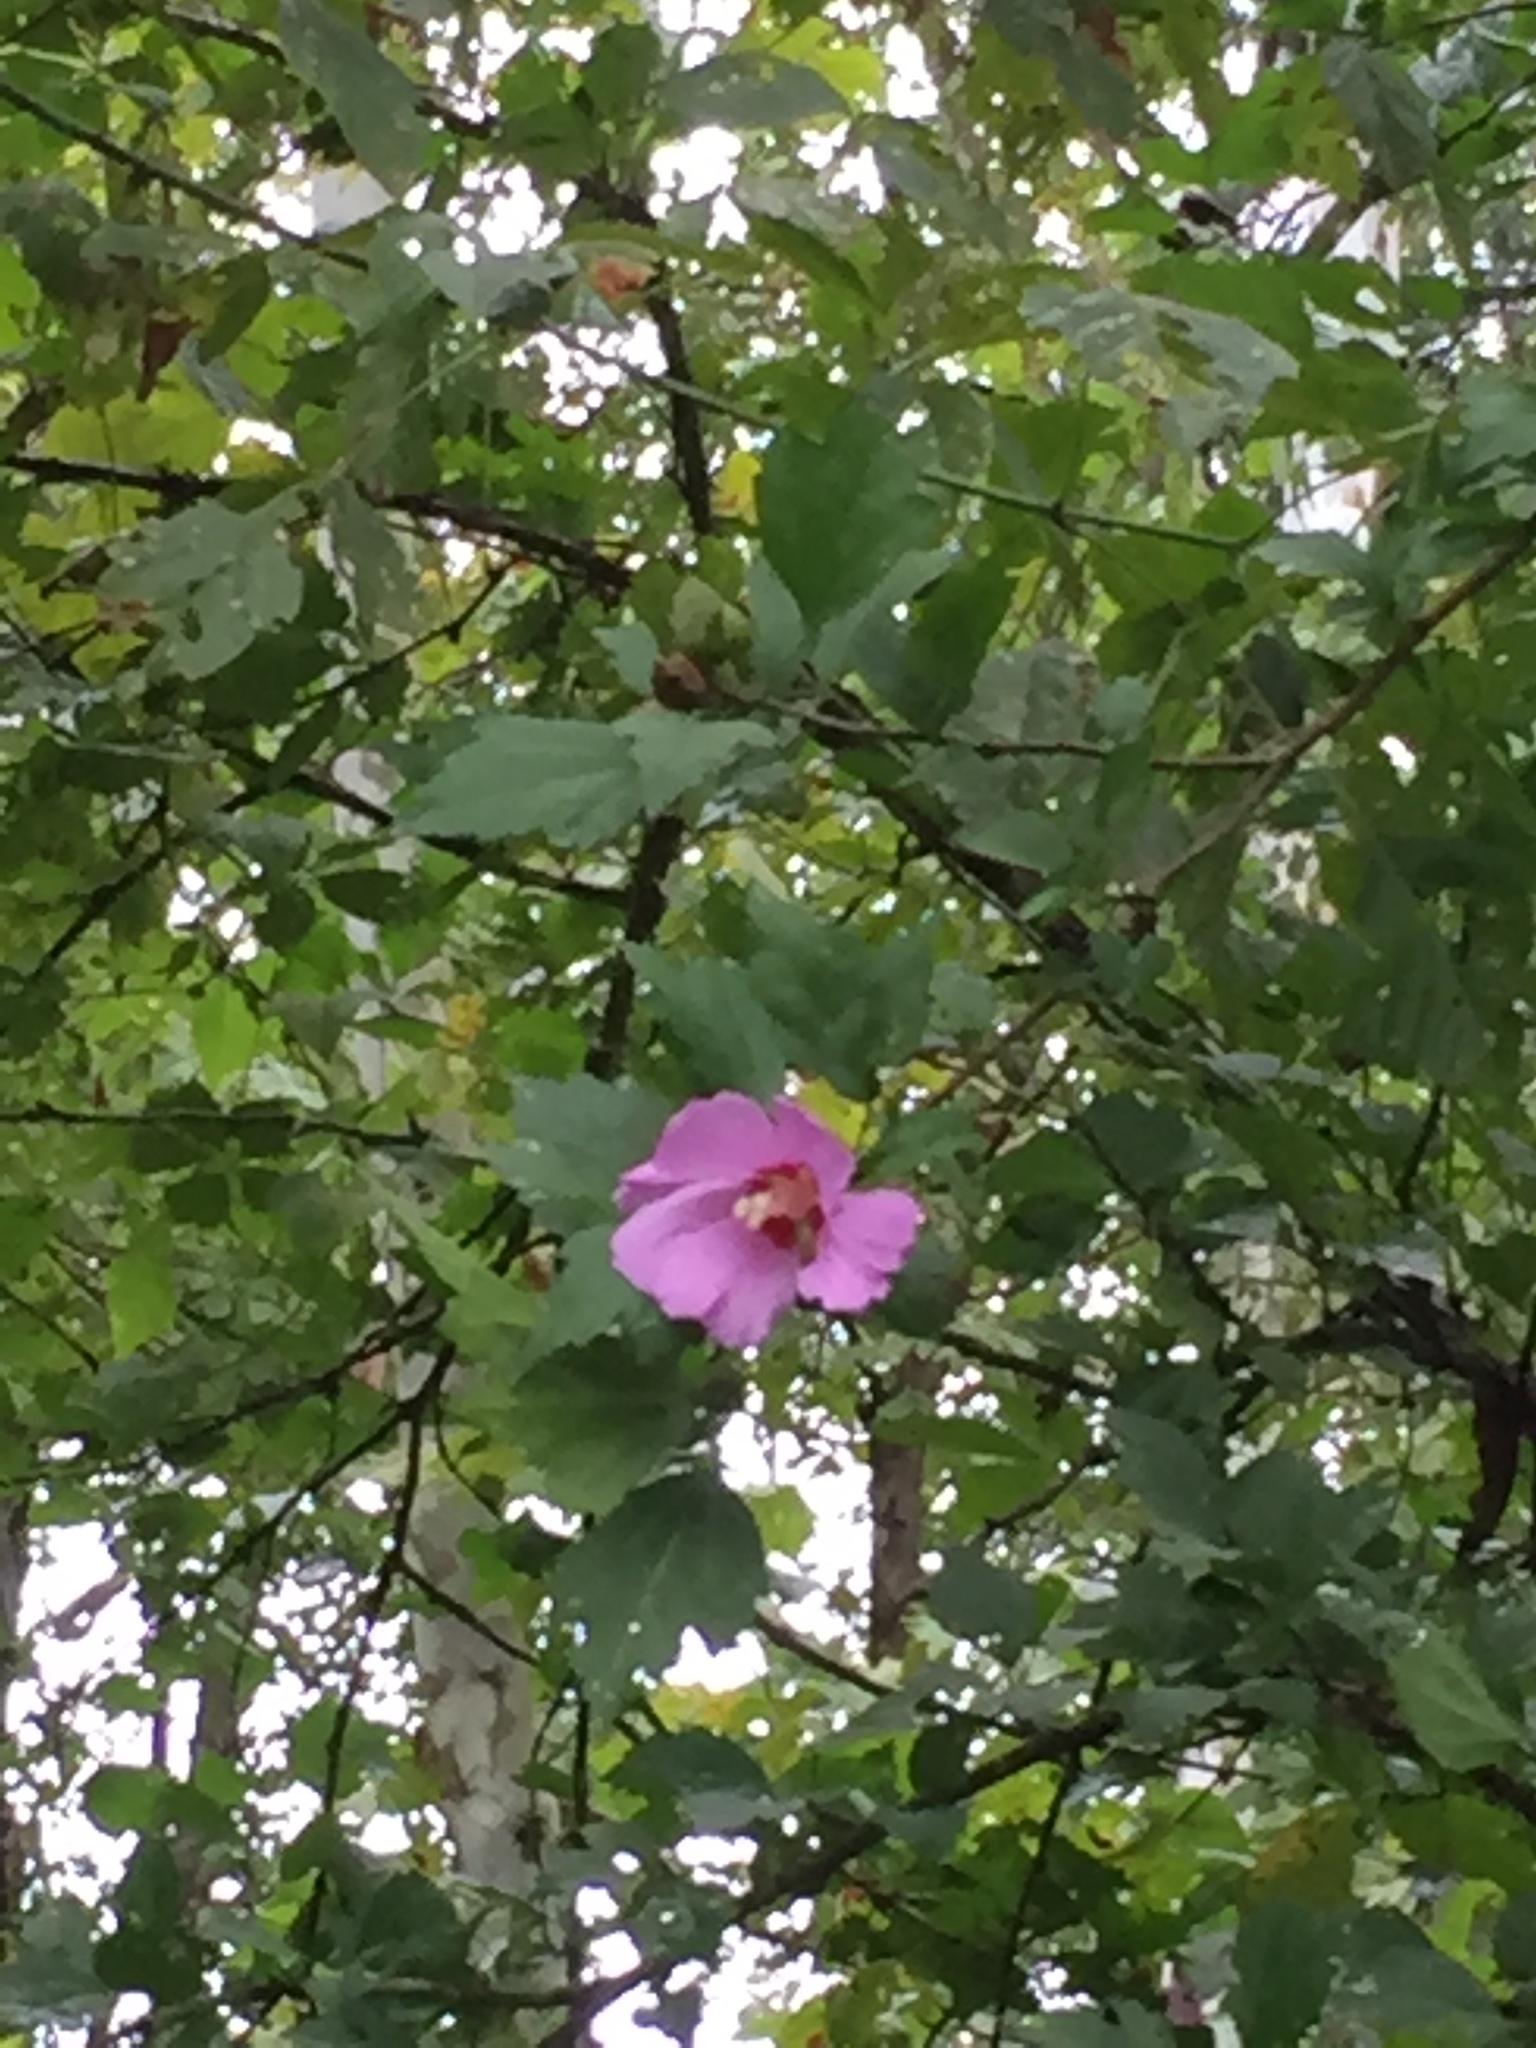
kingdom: Plantae
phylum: Tracheophyta
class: Magnoliopsida
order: Malvales
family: Malvaceae
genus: Hibiscus
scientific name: Hibiscus syriacus
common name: Syrian ketmia
